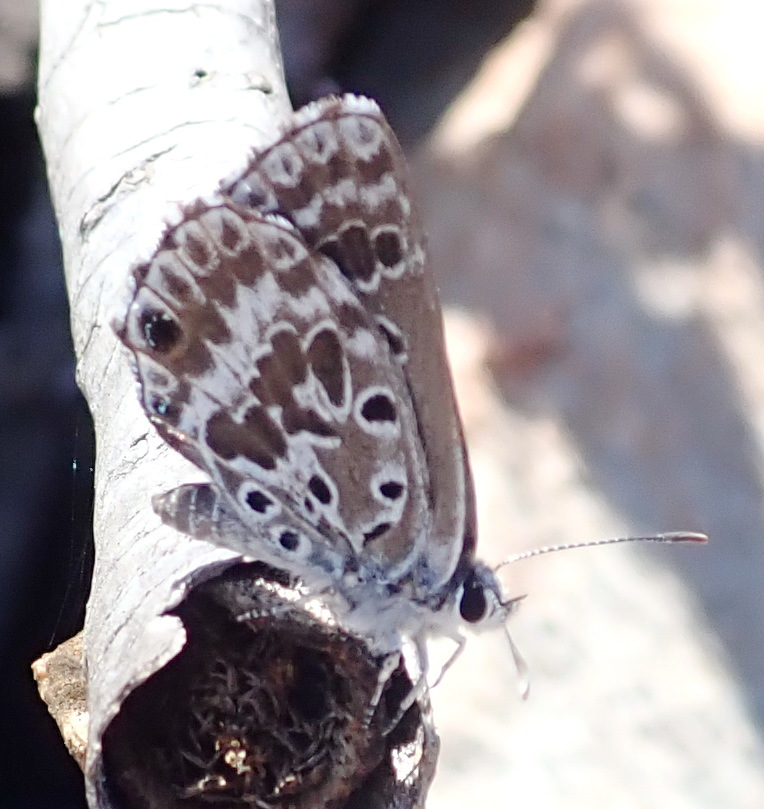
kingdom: Animalia
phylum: Arthropoda
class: Insecta
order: Lepidoptera
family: Lycaenidae
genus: Lepidochrysops
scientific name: Lepidochrysops asteris
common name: Brilliant blue
